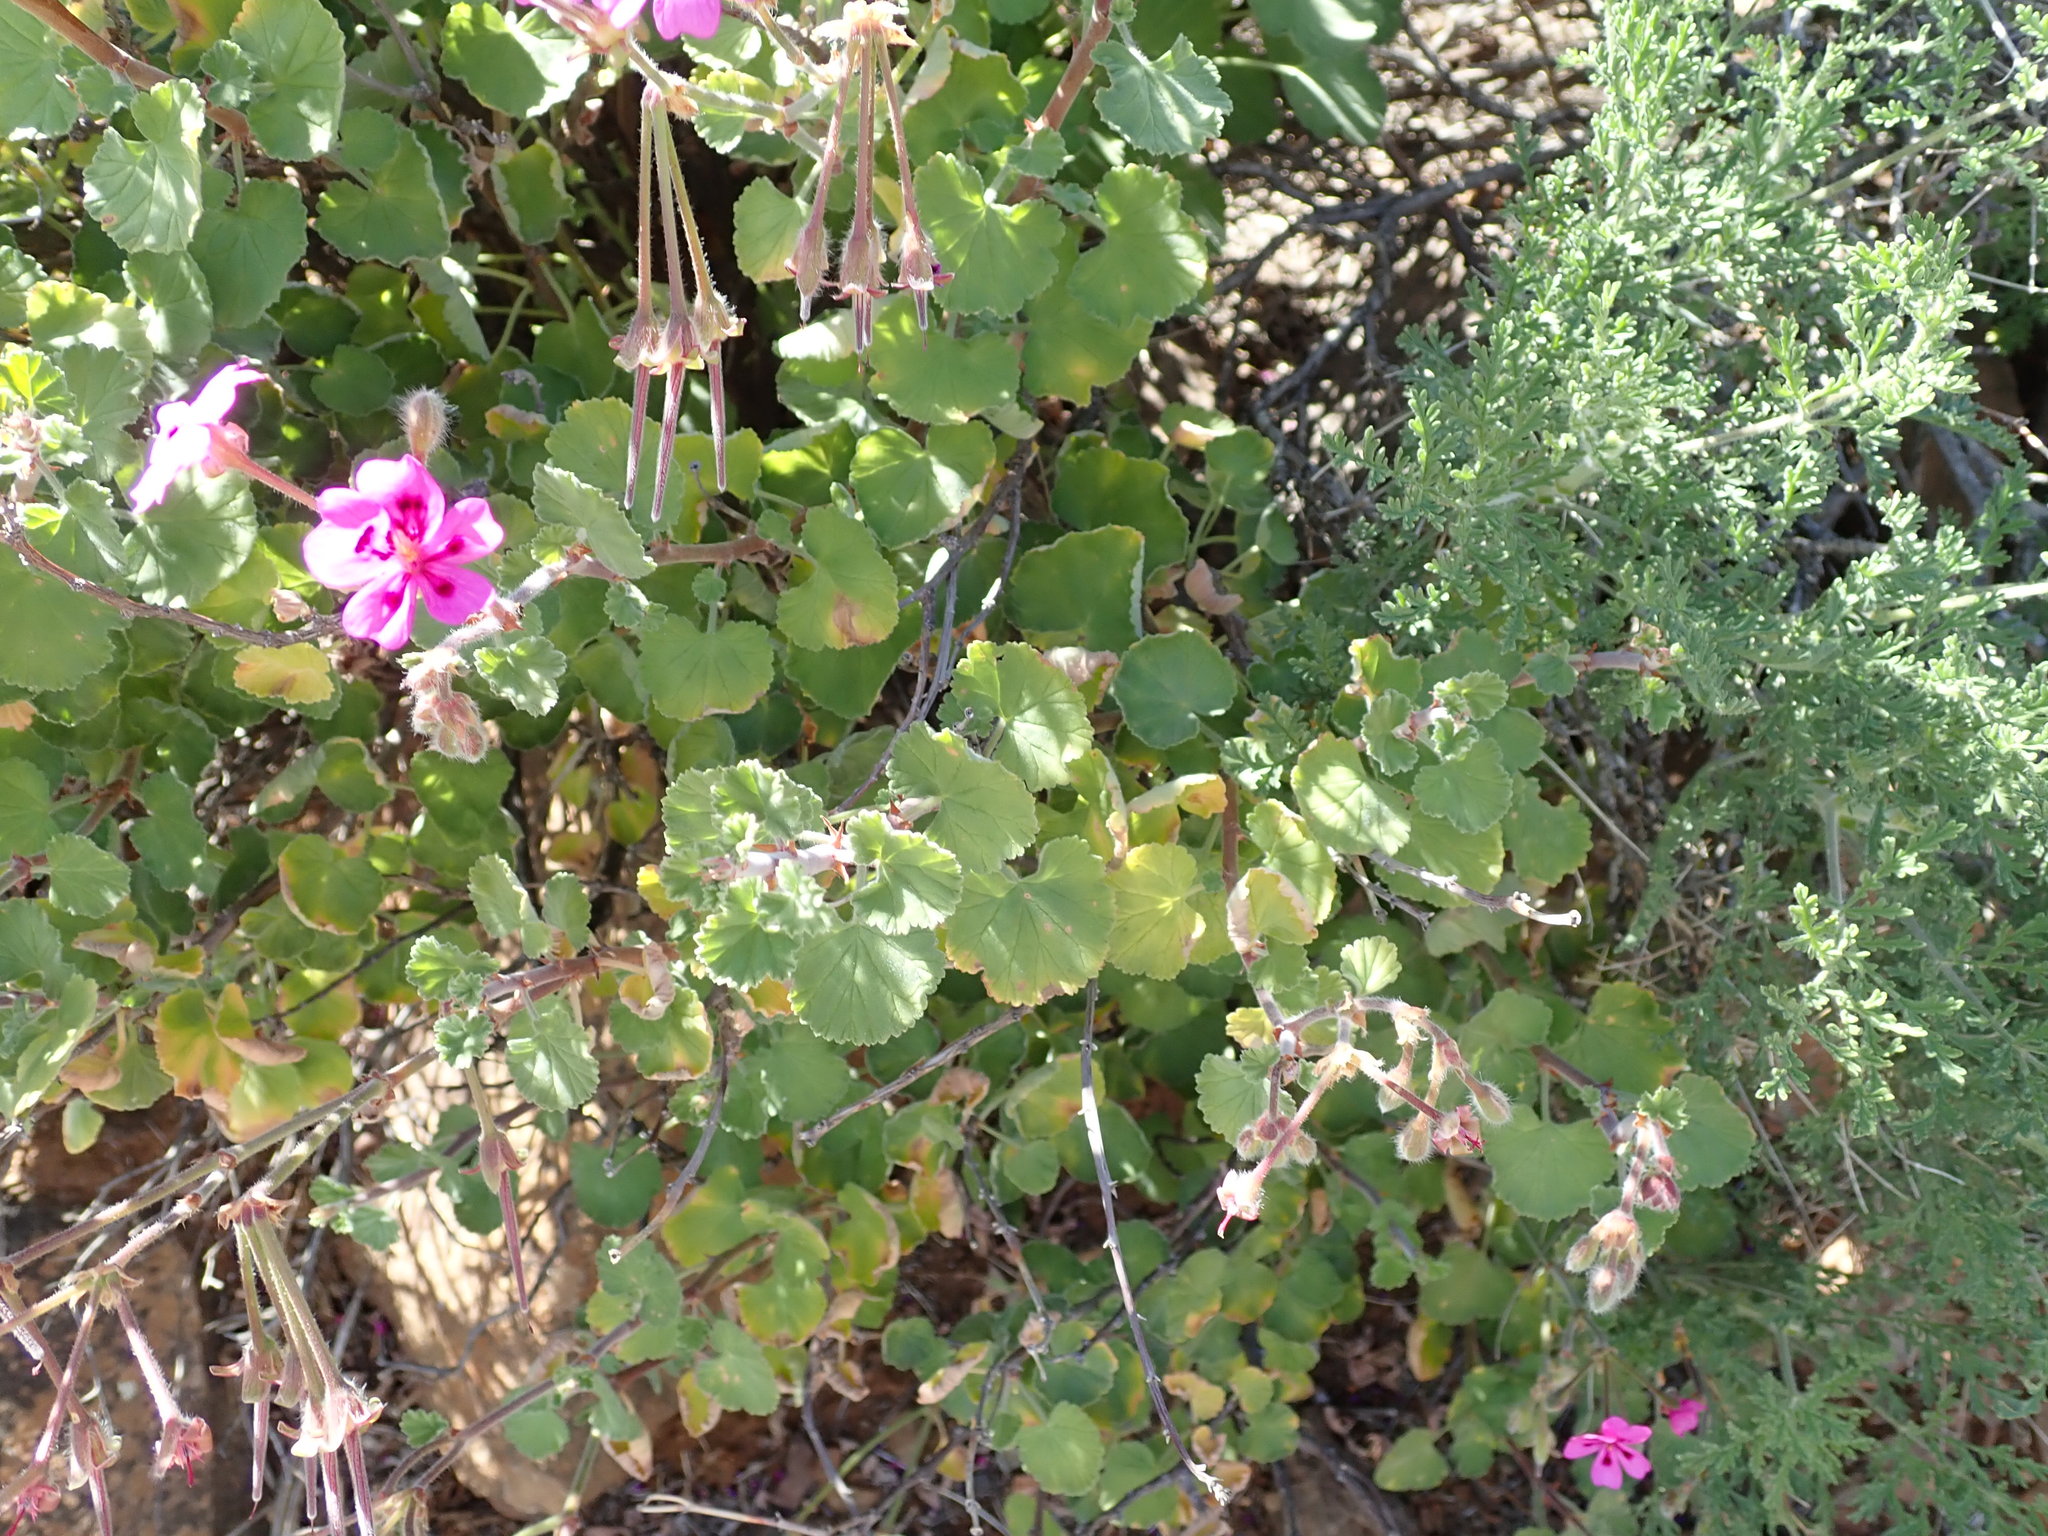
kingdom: Plantae
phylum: Tracheophyta
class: Magnoliopsida
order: Geraniales
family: Geraniaceae
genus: Pelargonium
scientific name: Pelargonium magenteum
